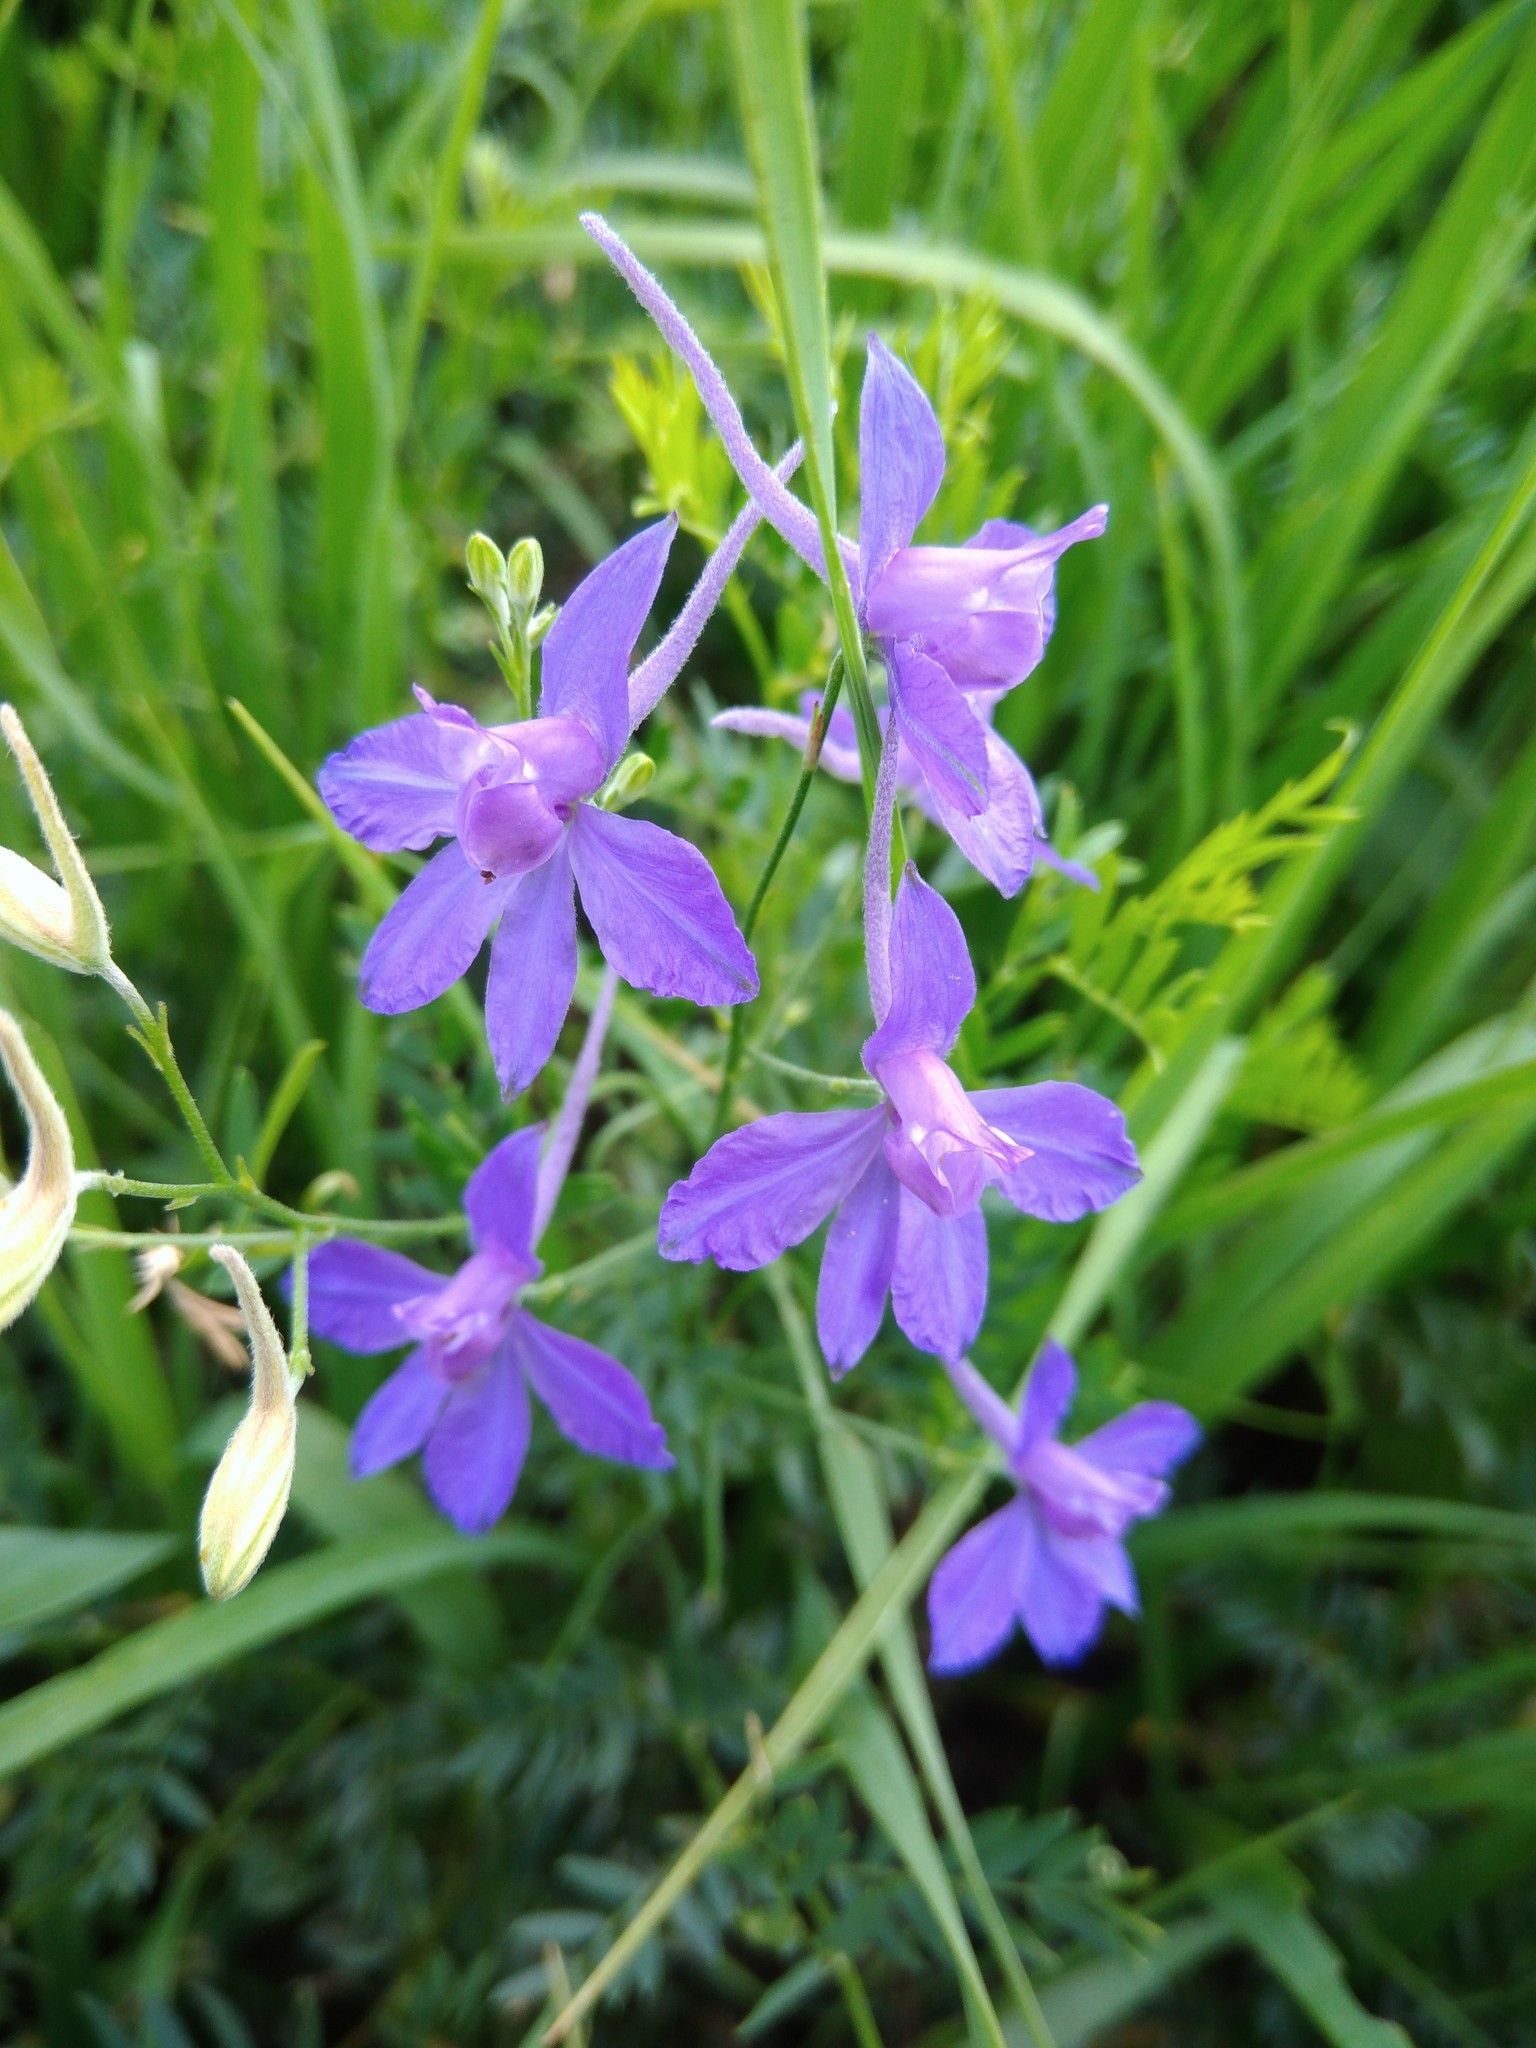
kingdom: Plantae
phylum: Tracheophyta
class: Magnoliopsida
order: Ranunculales
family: Ranunculaceae
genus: Delphinium
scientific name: Delphinium consolida
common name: Branching larkspur
